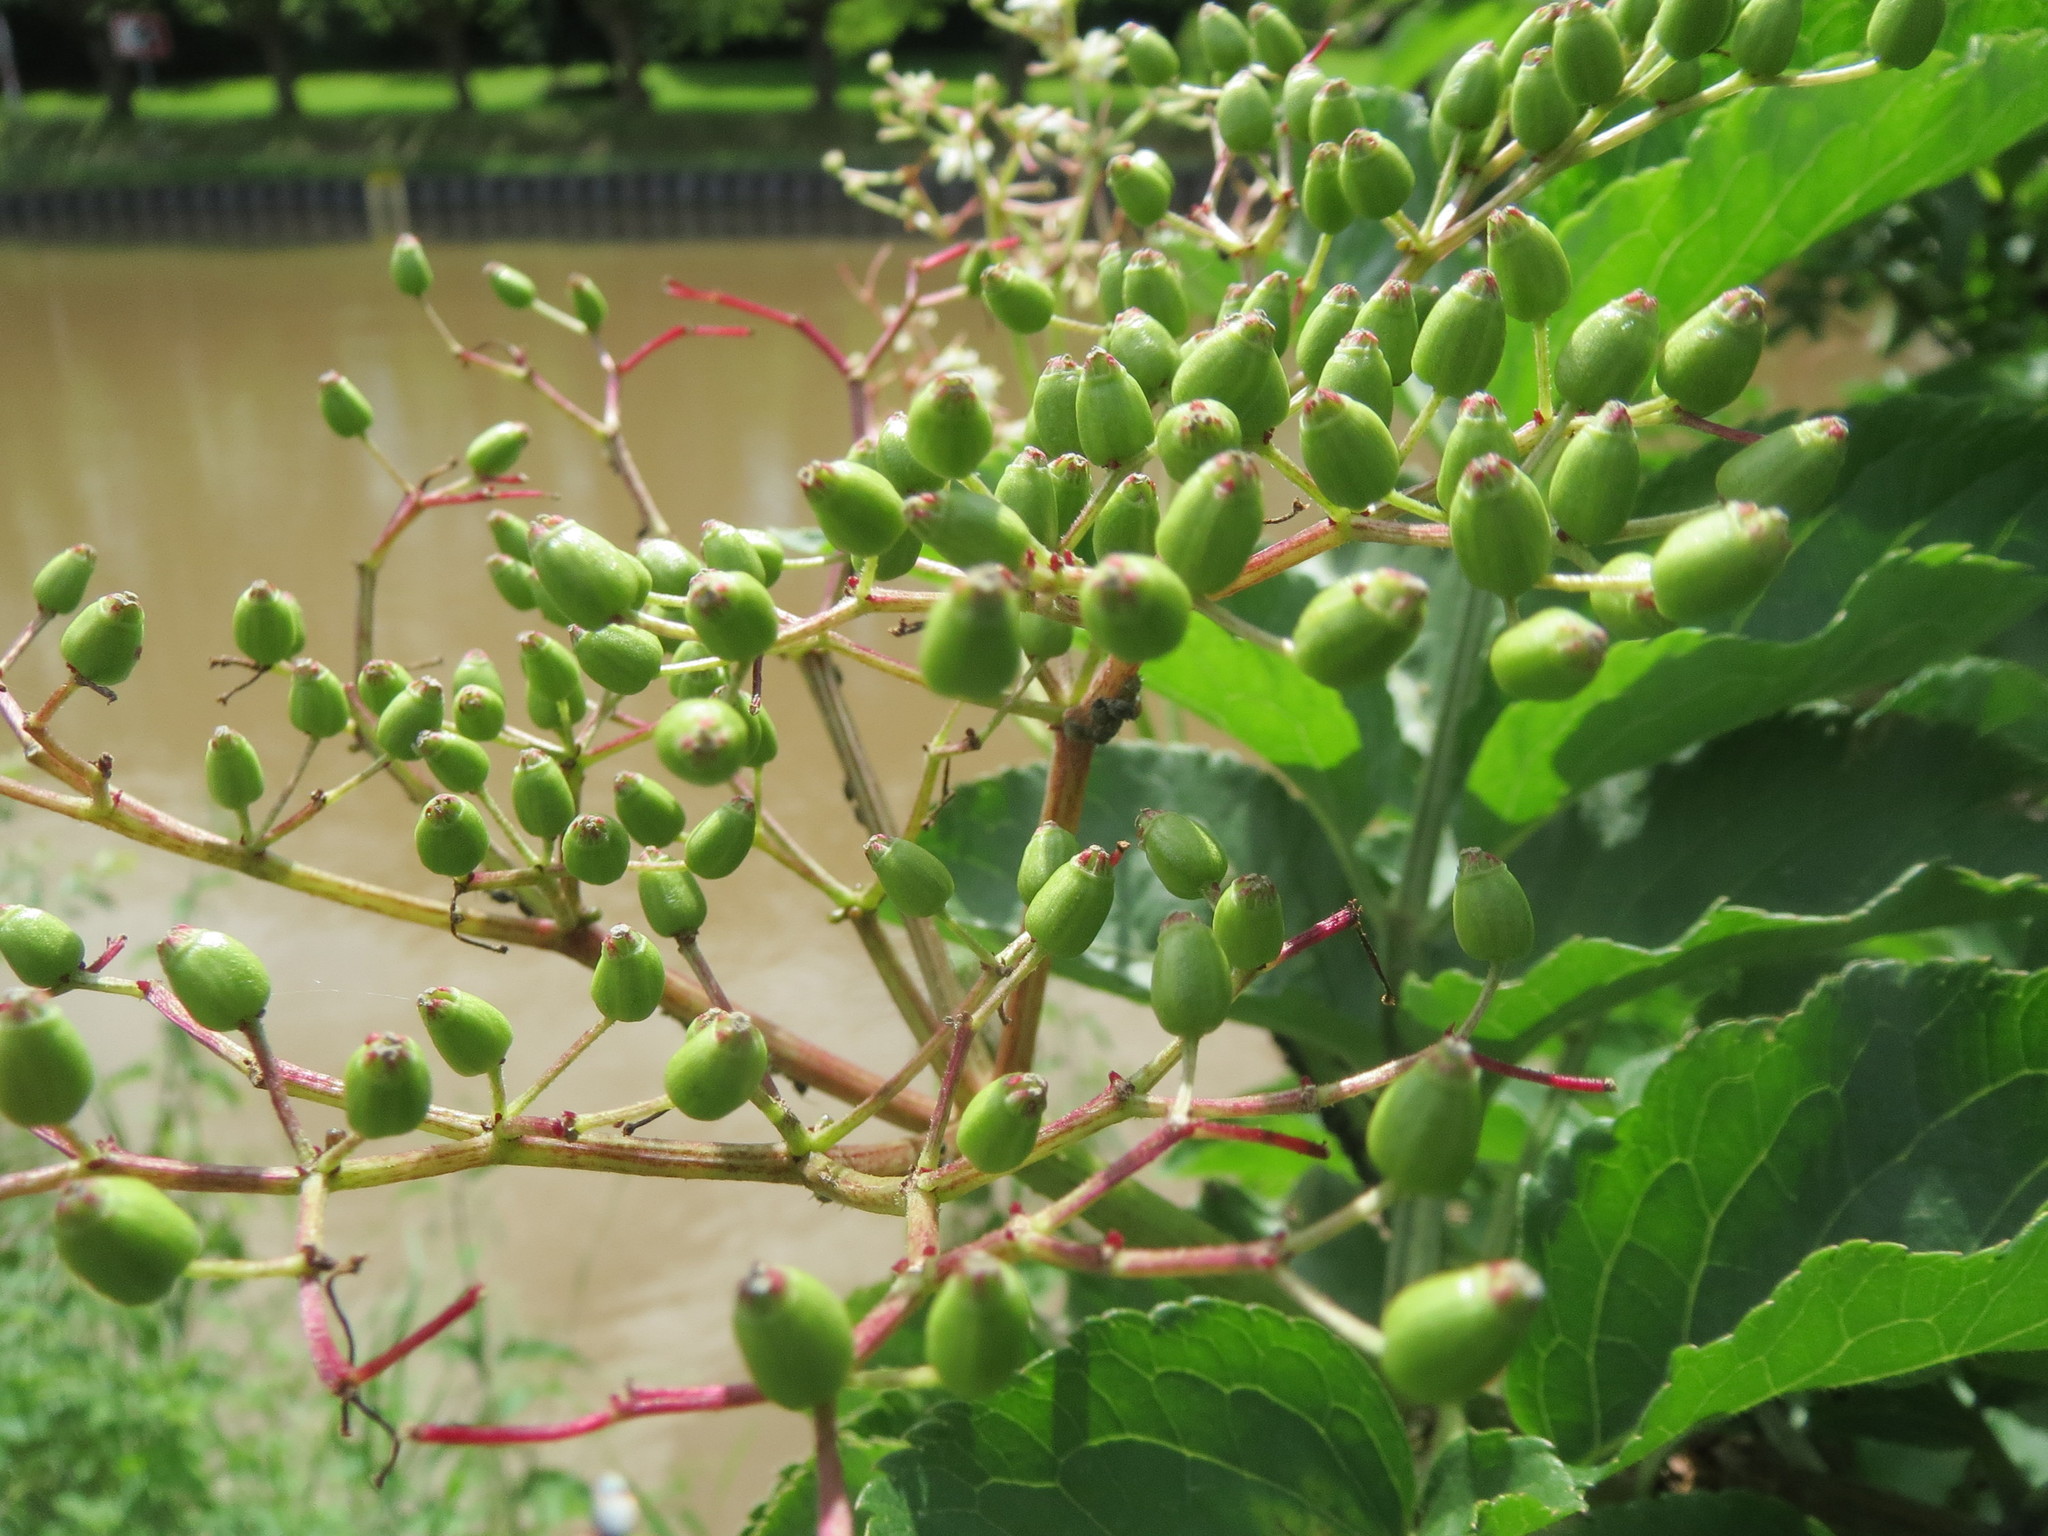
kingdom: Plantae
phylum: Tracheophyta
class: Magnoliopsida
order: Dipsacales
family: Viburnaceae
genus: Sambucus
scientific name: Sambucus nigra
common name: Elder
